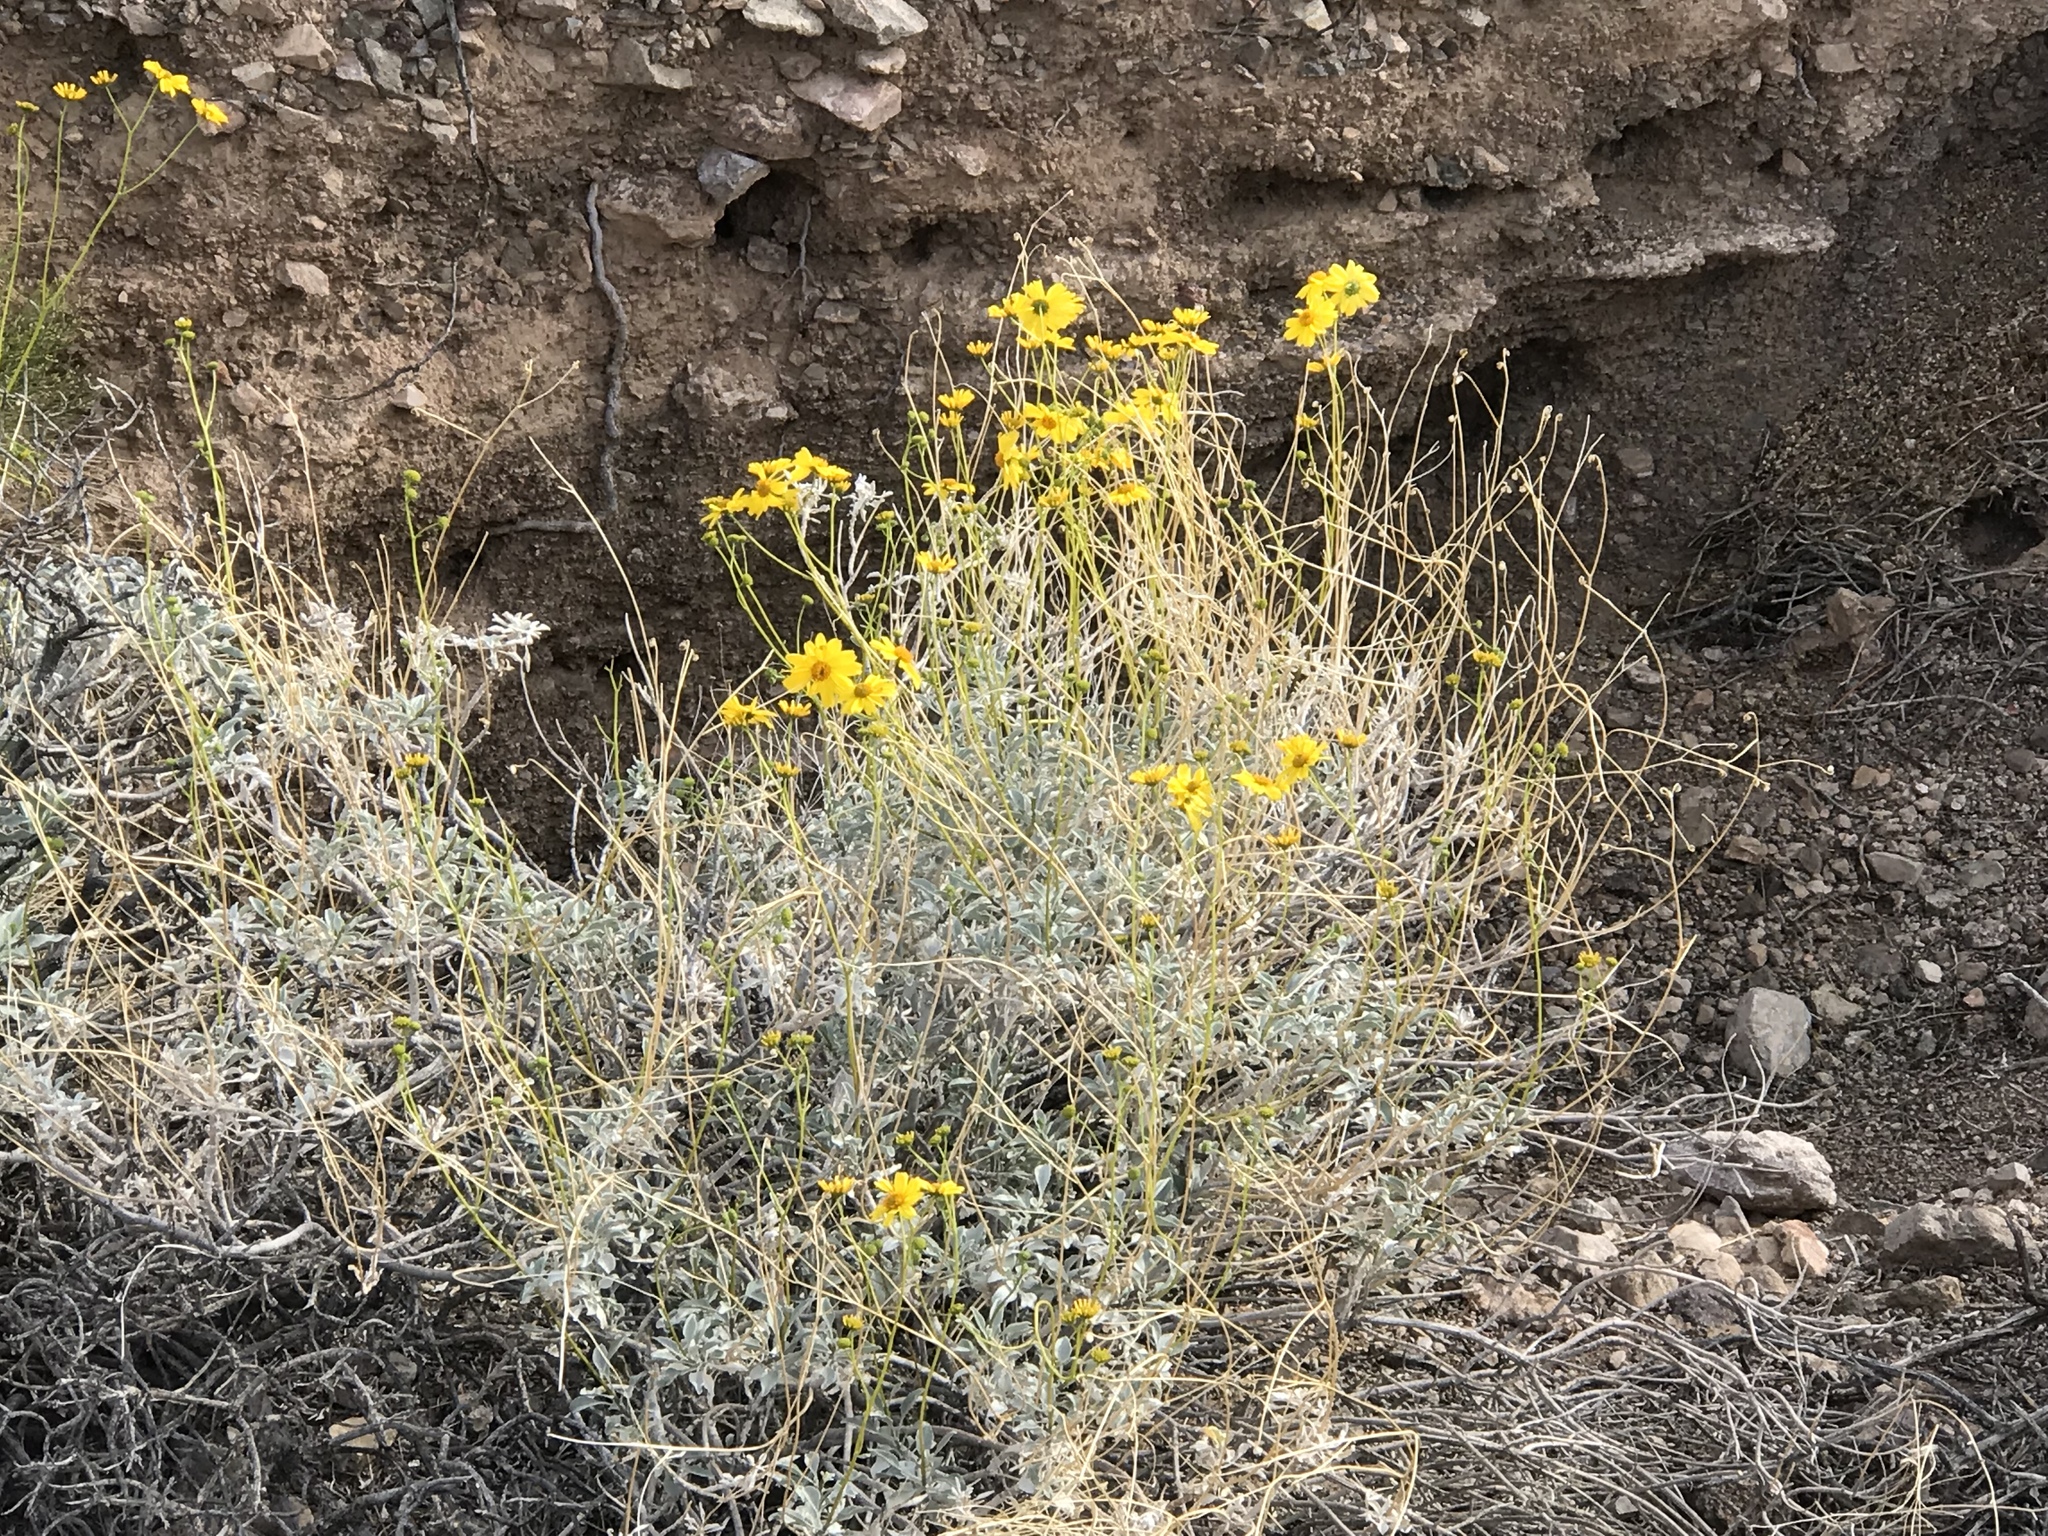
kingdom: Plantae
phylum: Tracheophyta
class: Magnoliopsida
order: Asterales
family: Asteraceae
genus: Encelia
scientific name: Encelia farinosa
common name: Brittlebush
